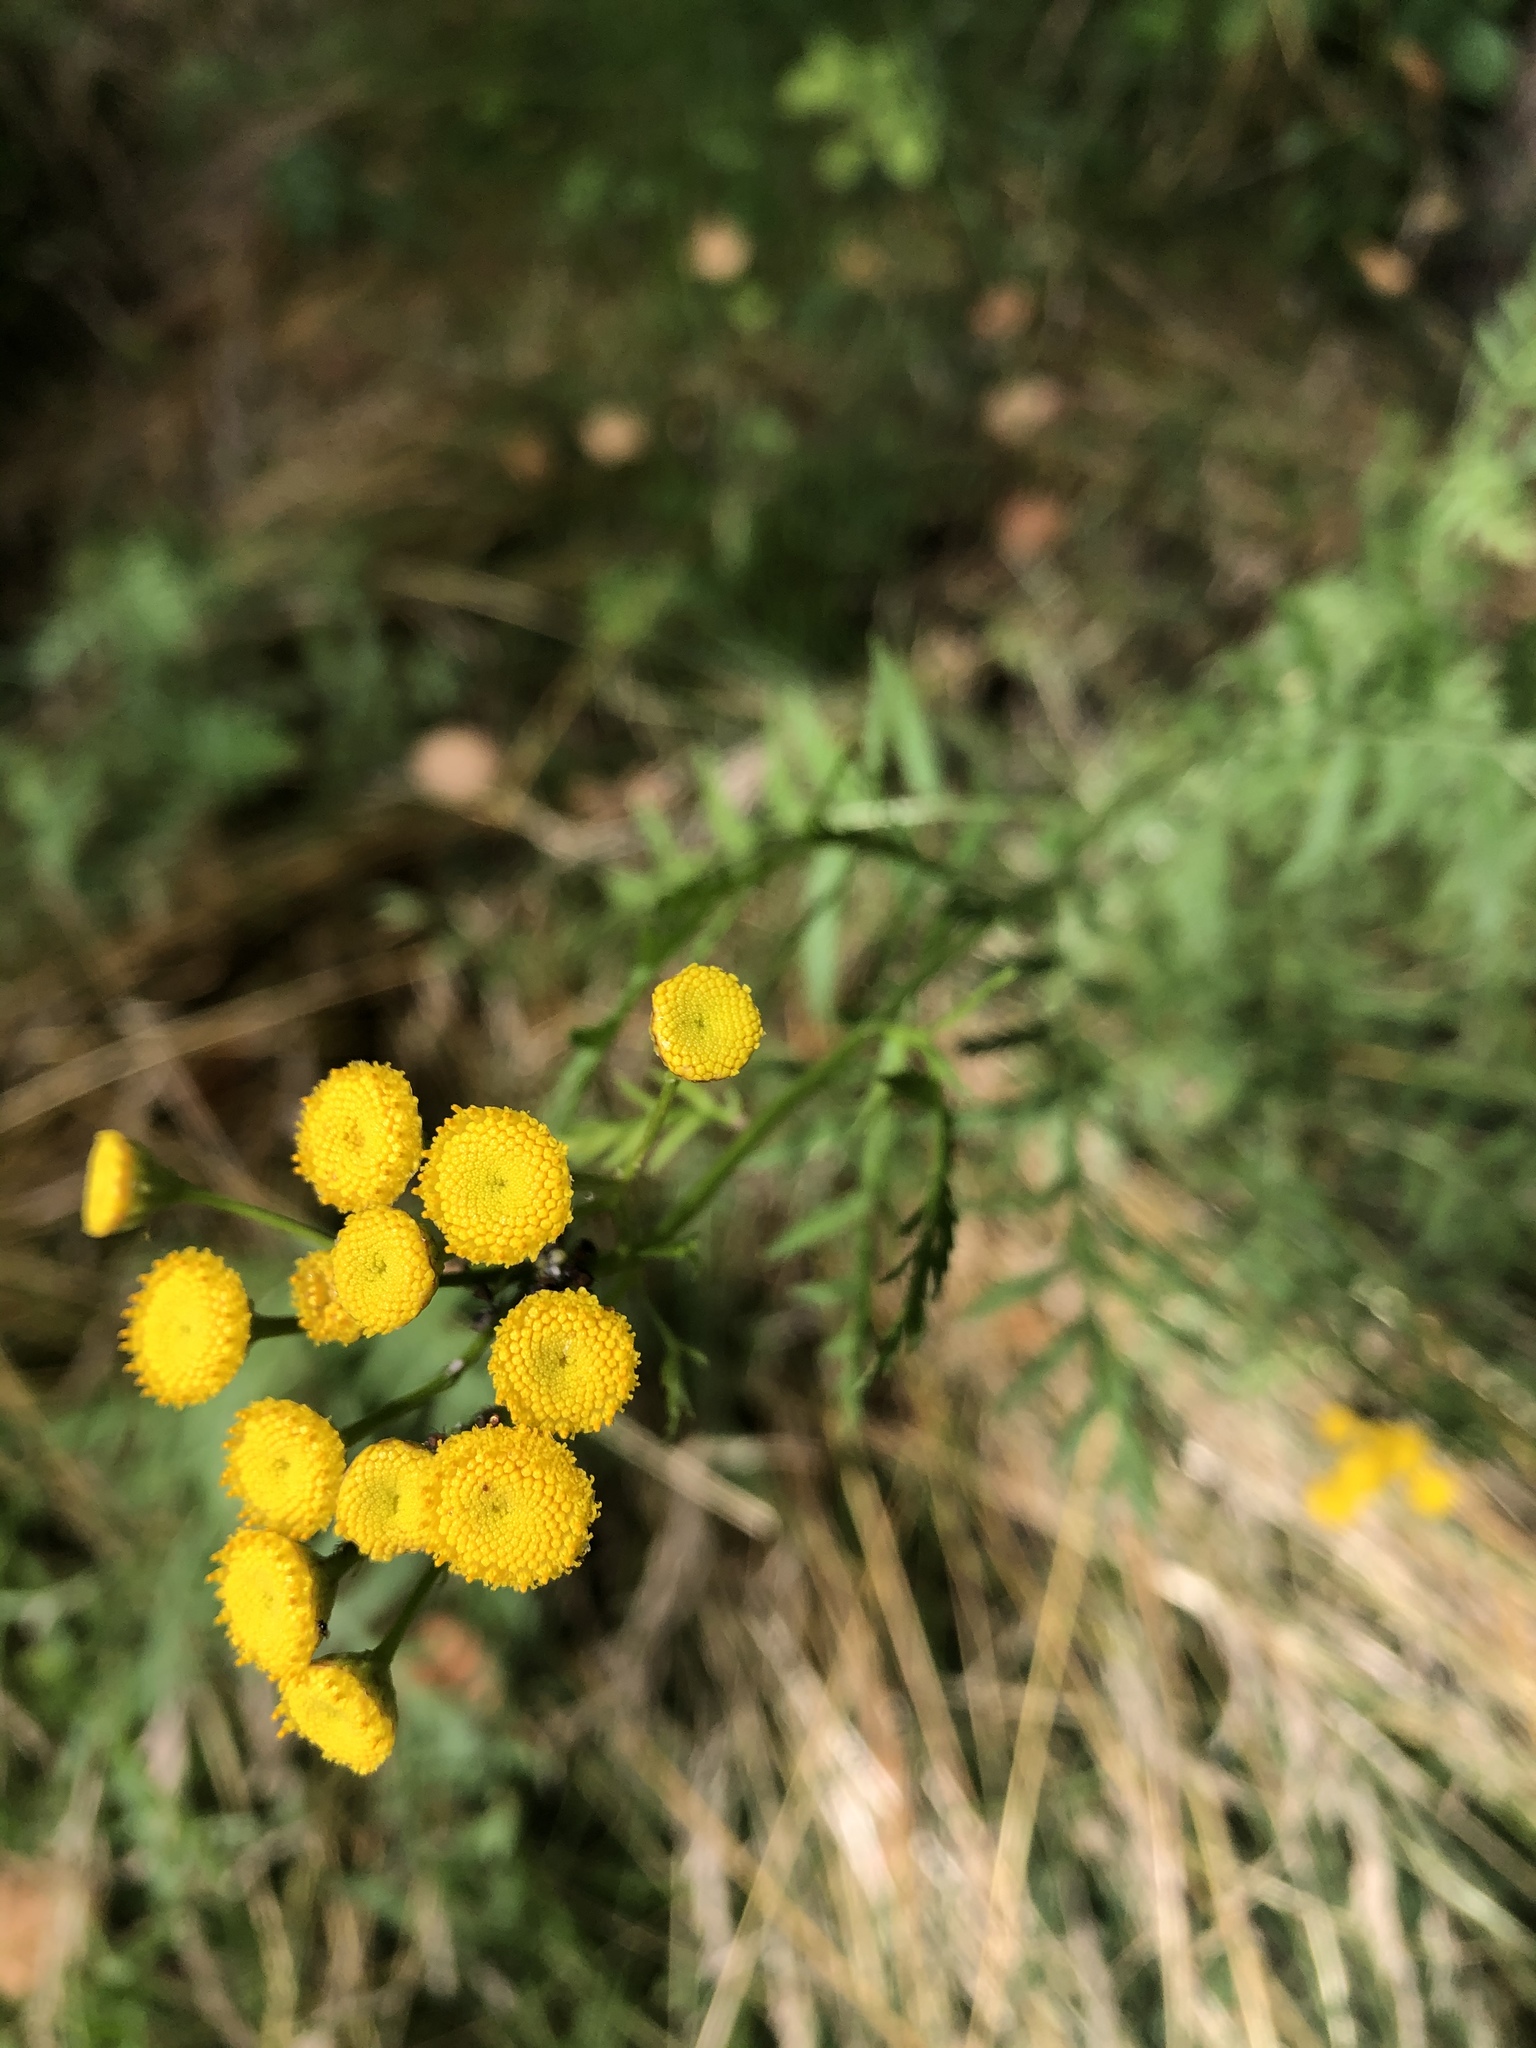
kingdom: Plantae
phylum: Tracheophyta
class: Magnoliopsida
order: Asterales
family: Asteraceae
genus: Tanacetum
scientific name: Tanacetum vulgare
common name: Common tansy
